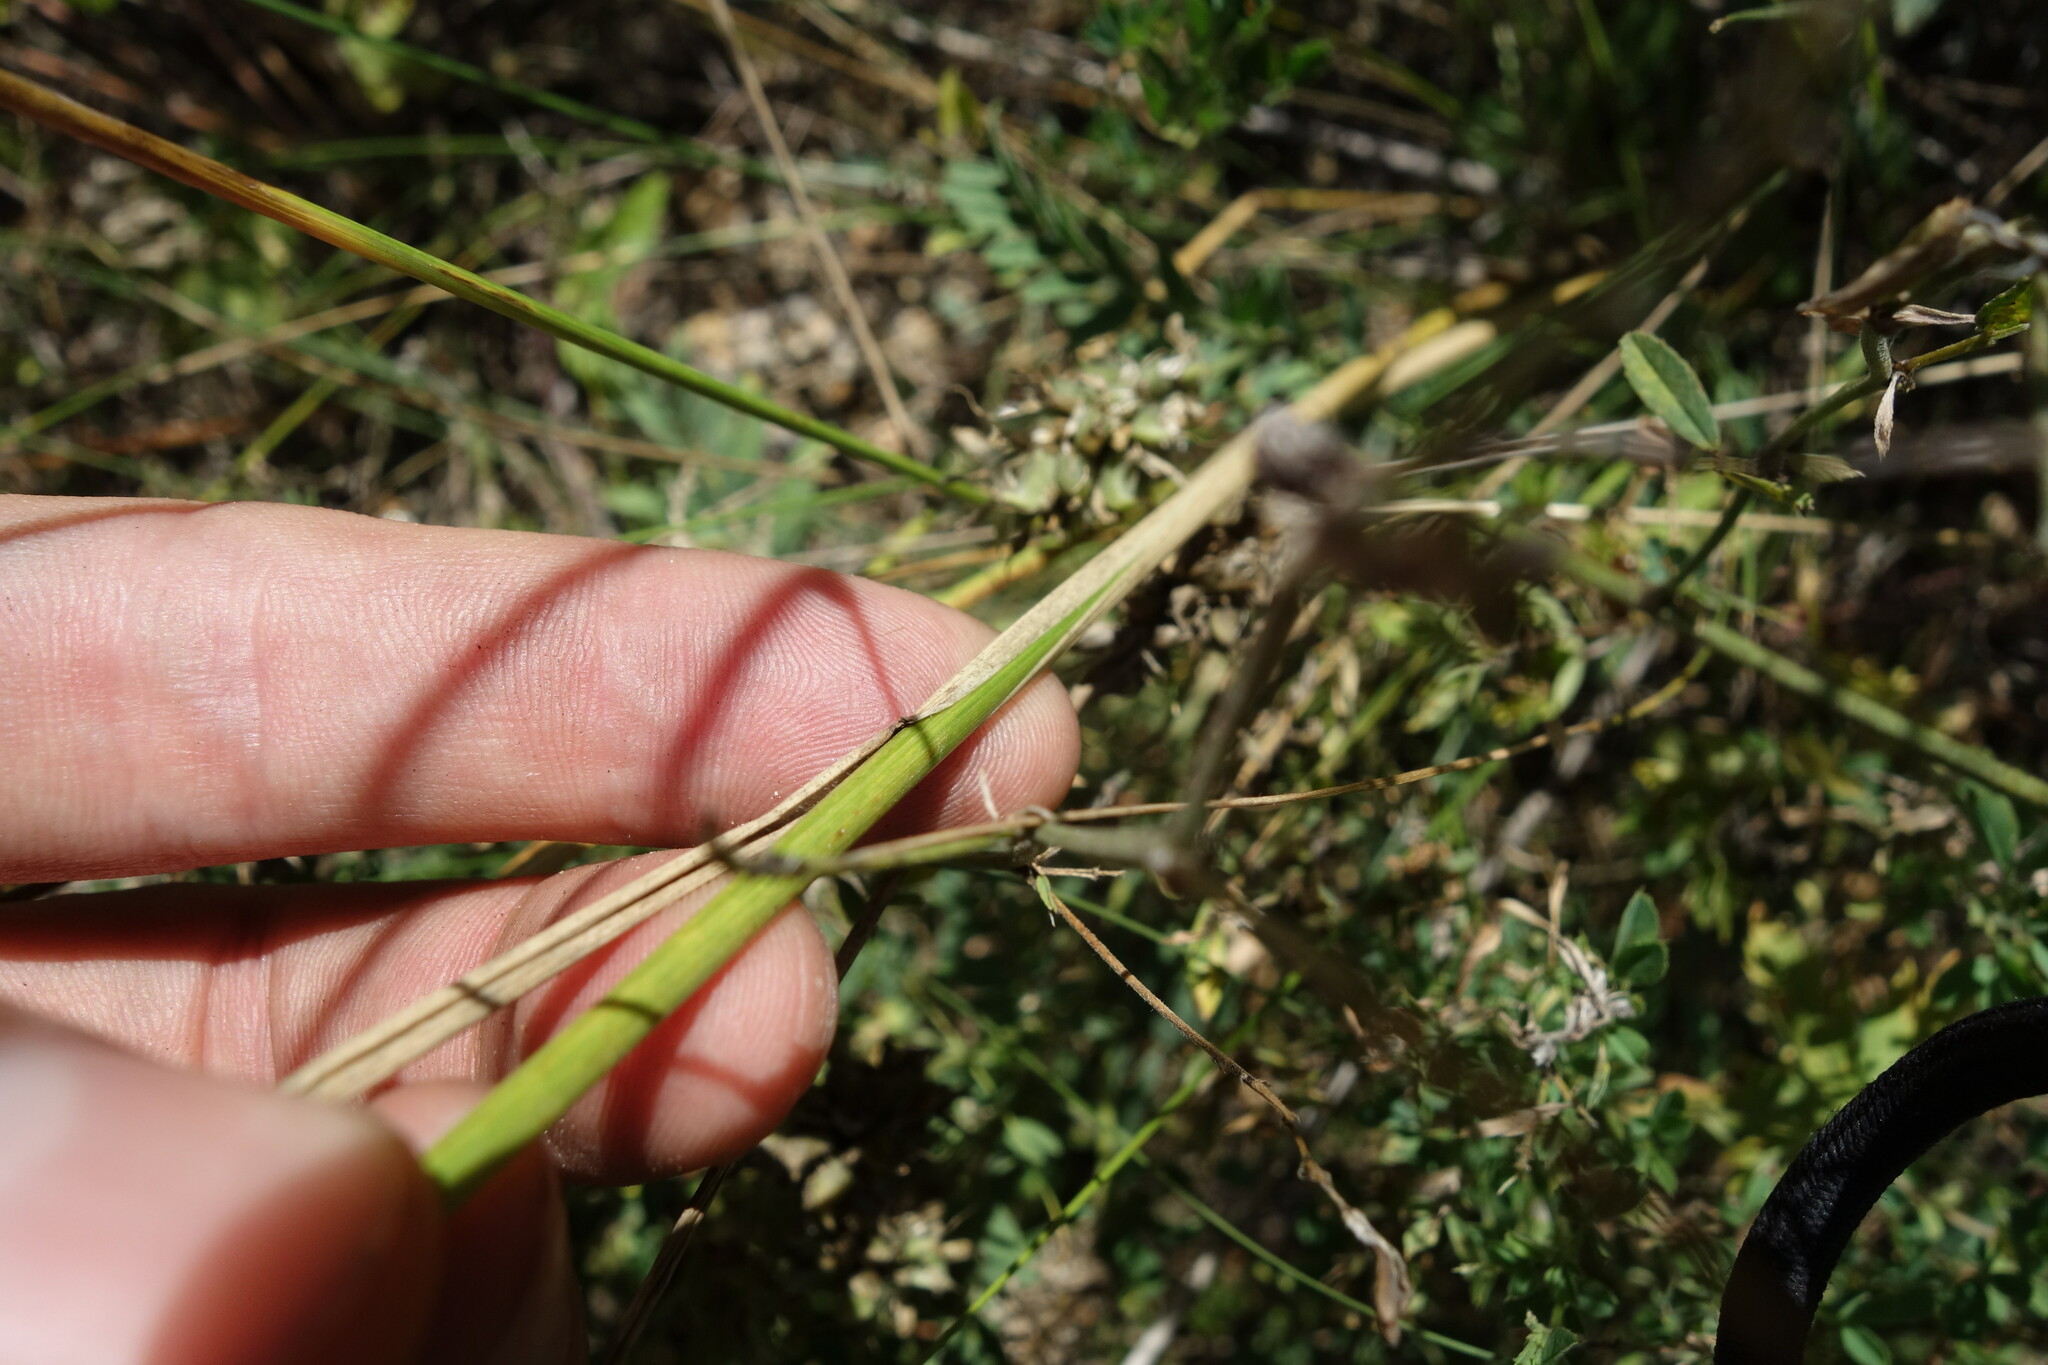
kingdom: Plantae
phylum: Tracheophyta
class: Liliopsida
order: Poales
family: Poaceae
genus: Elymus
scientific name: Elymus gmelinii
